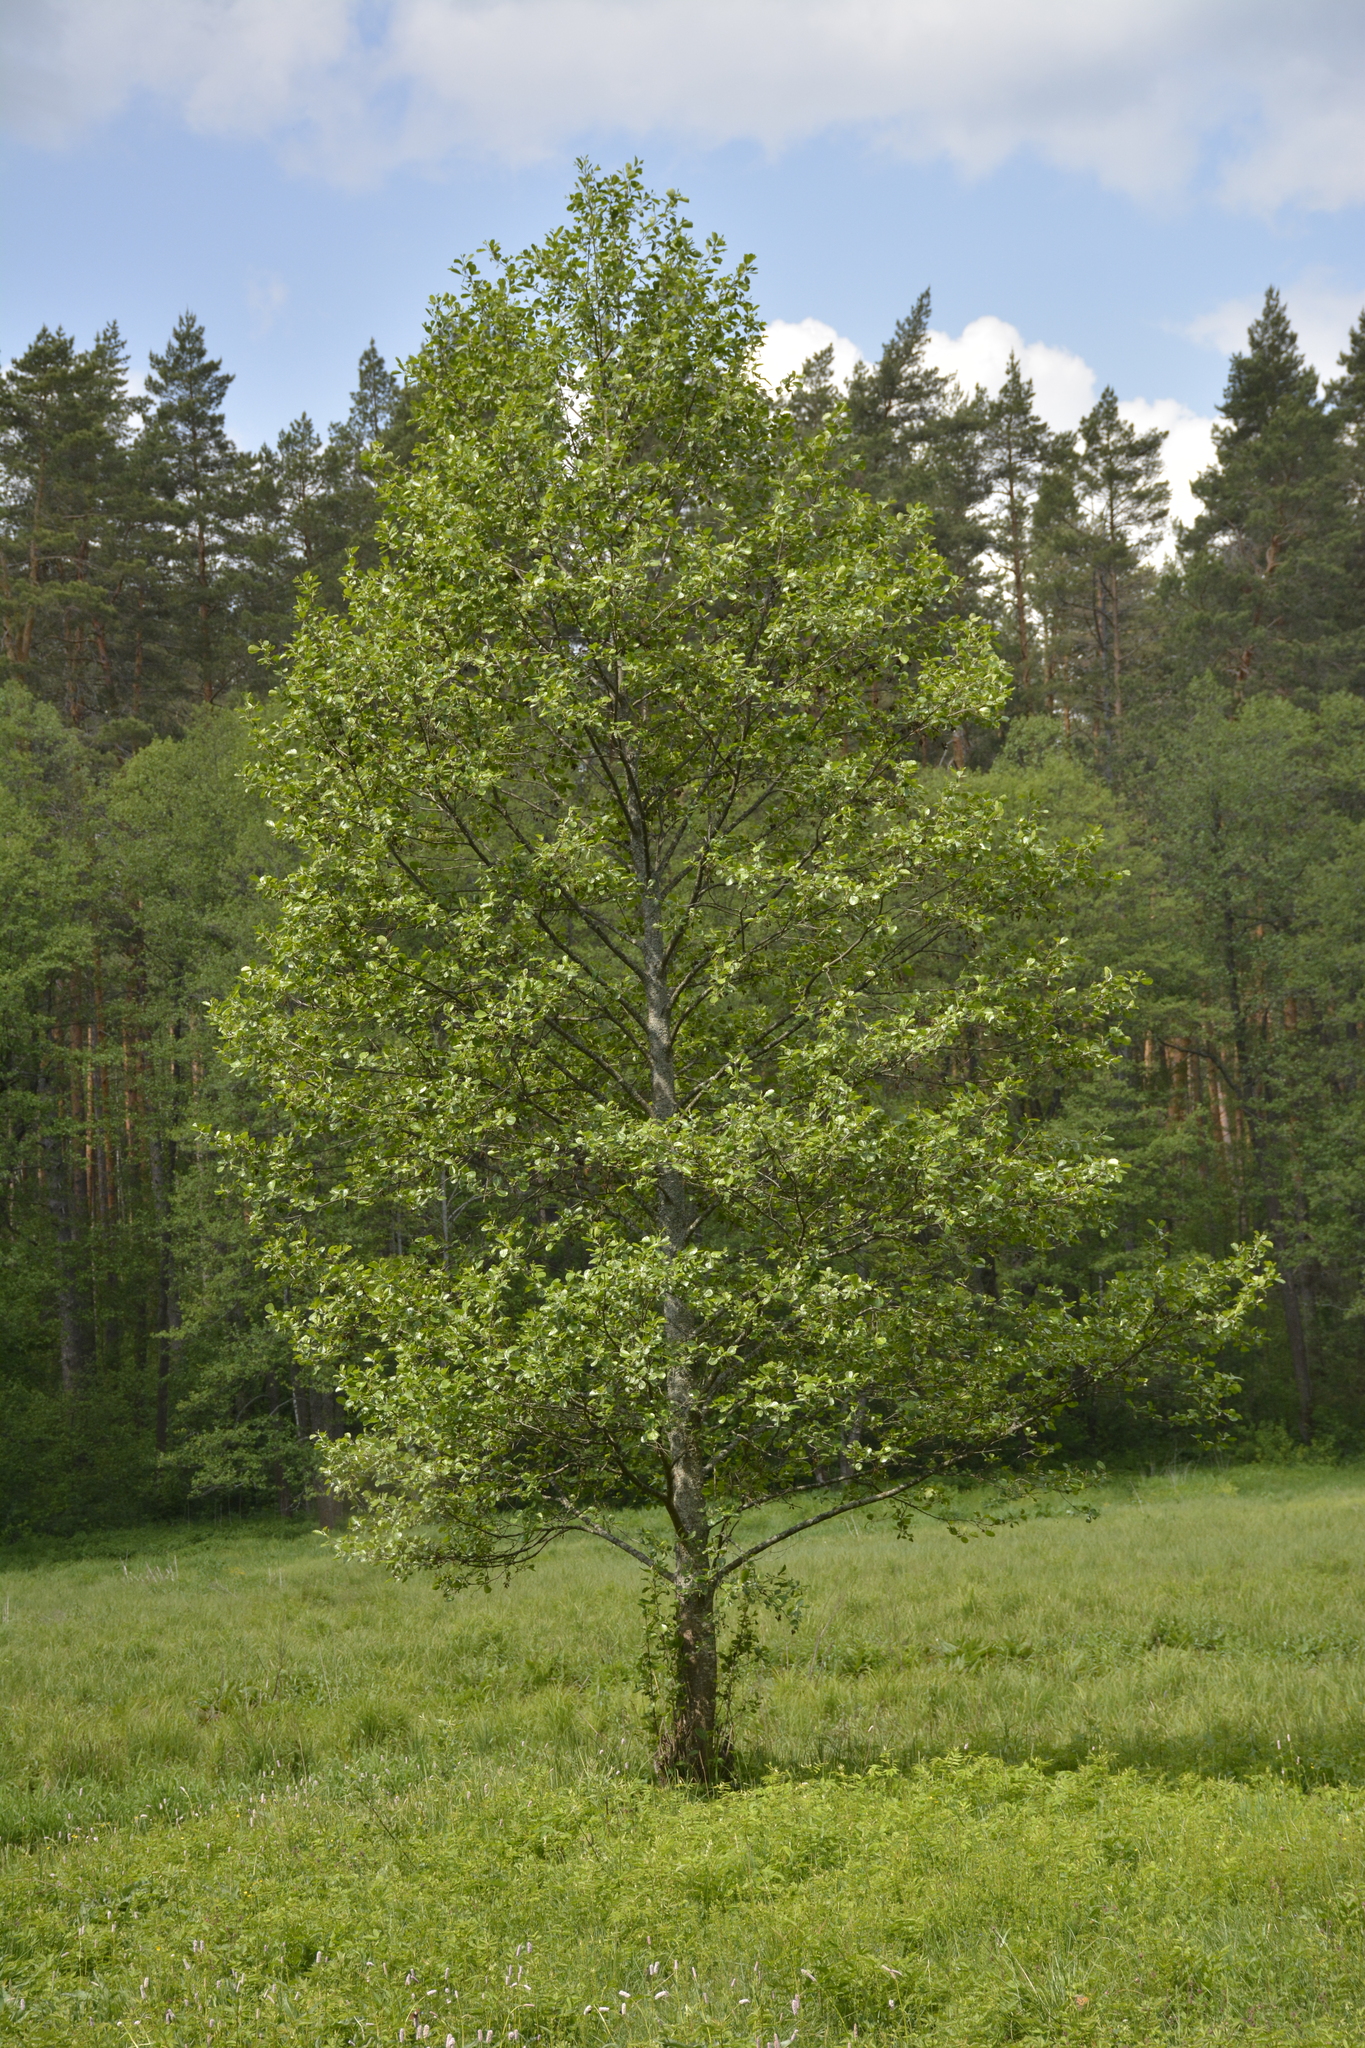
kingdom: Plantae
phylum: Tracheophyta
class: Magnoliopsida
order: Fagales
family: Betulaceae
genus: Alnus
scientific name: Alnus glutinosa
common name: Black alder
